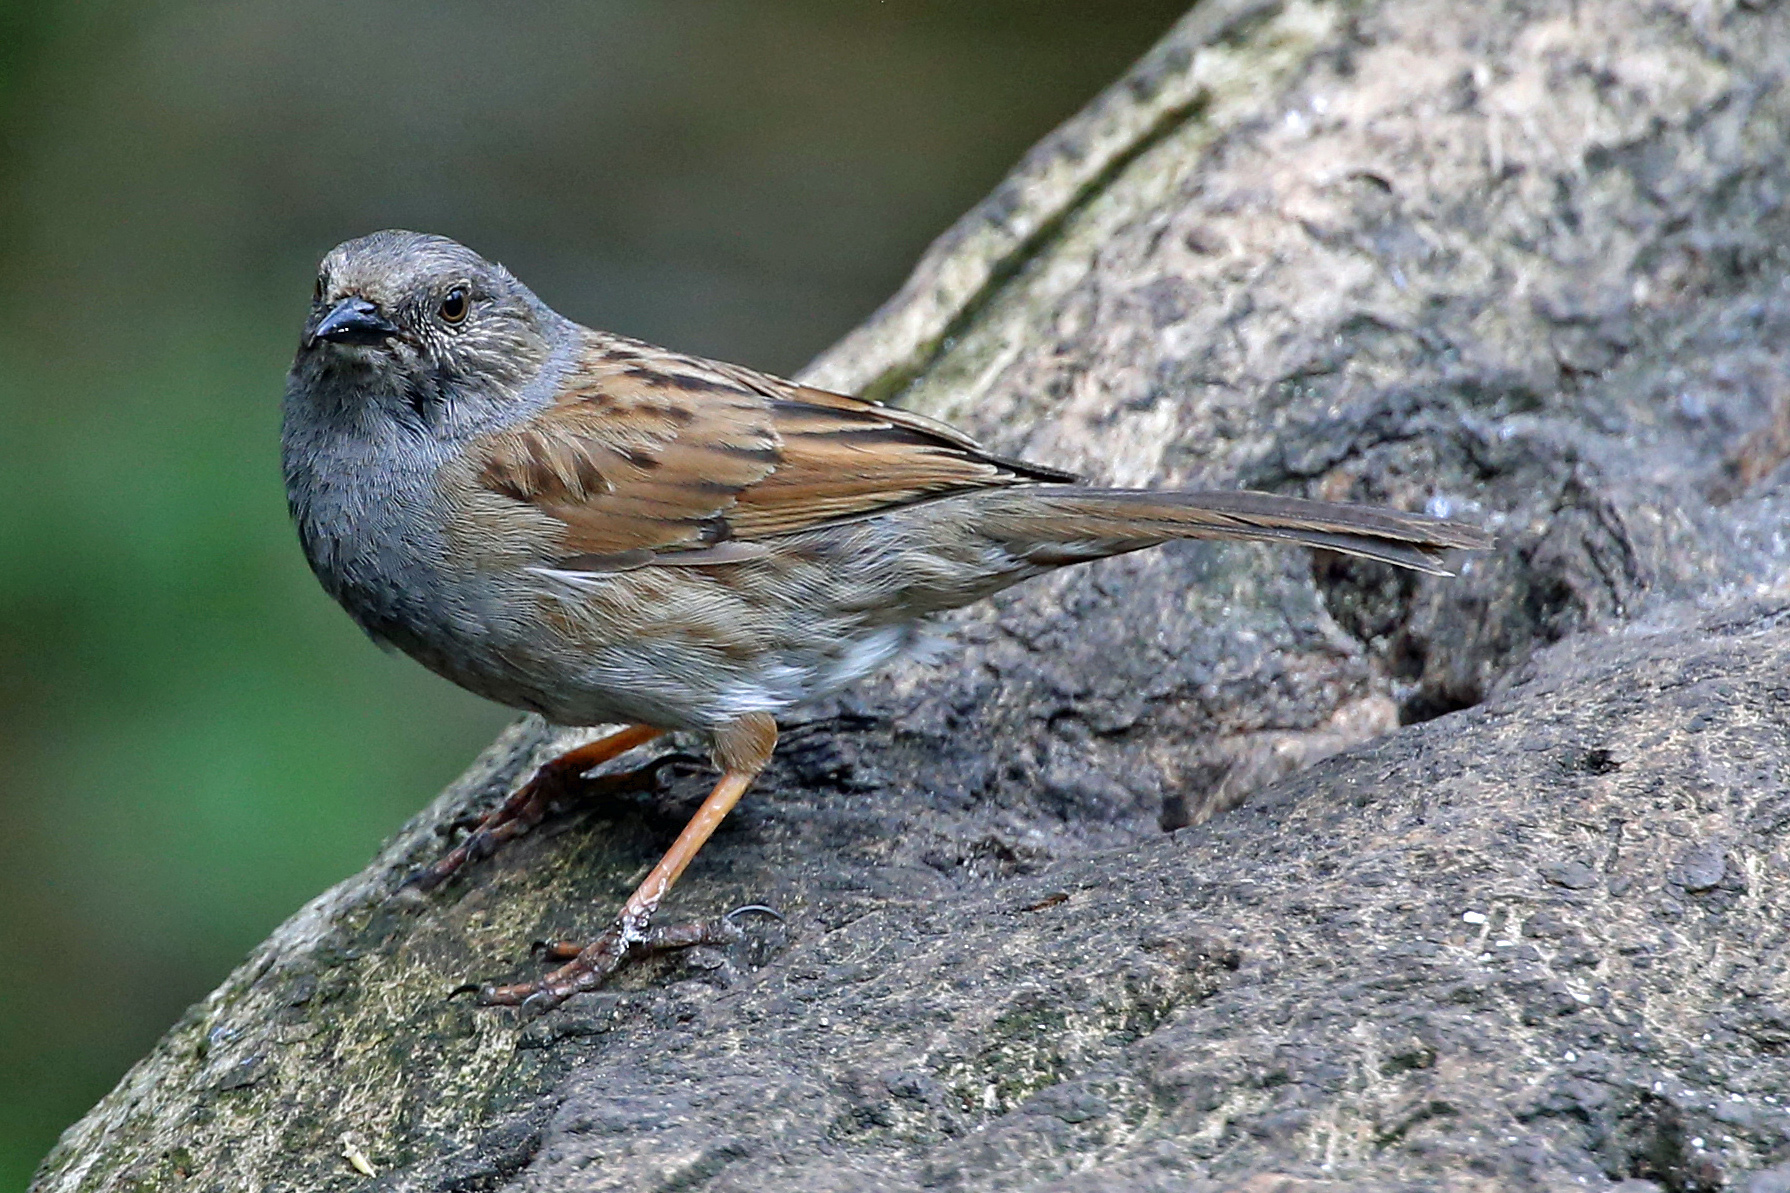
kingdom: Animalia
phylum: Chordata
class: Aves
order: Passeriformes
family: Prunellidae
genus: Prunella
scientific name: Prunella modularis
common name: Dunnock
